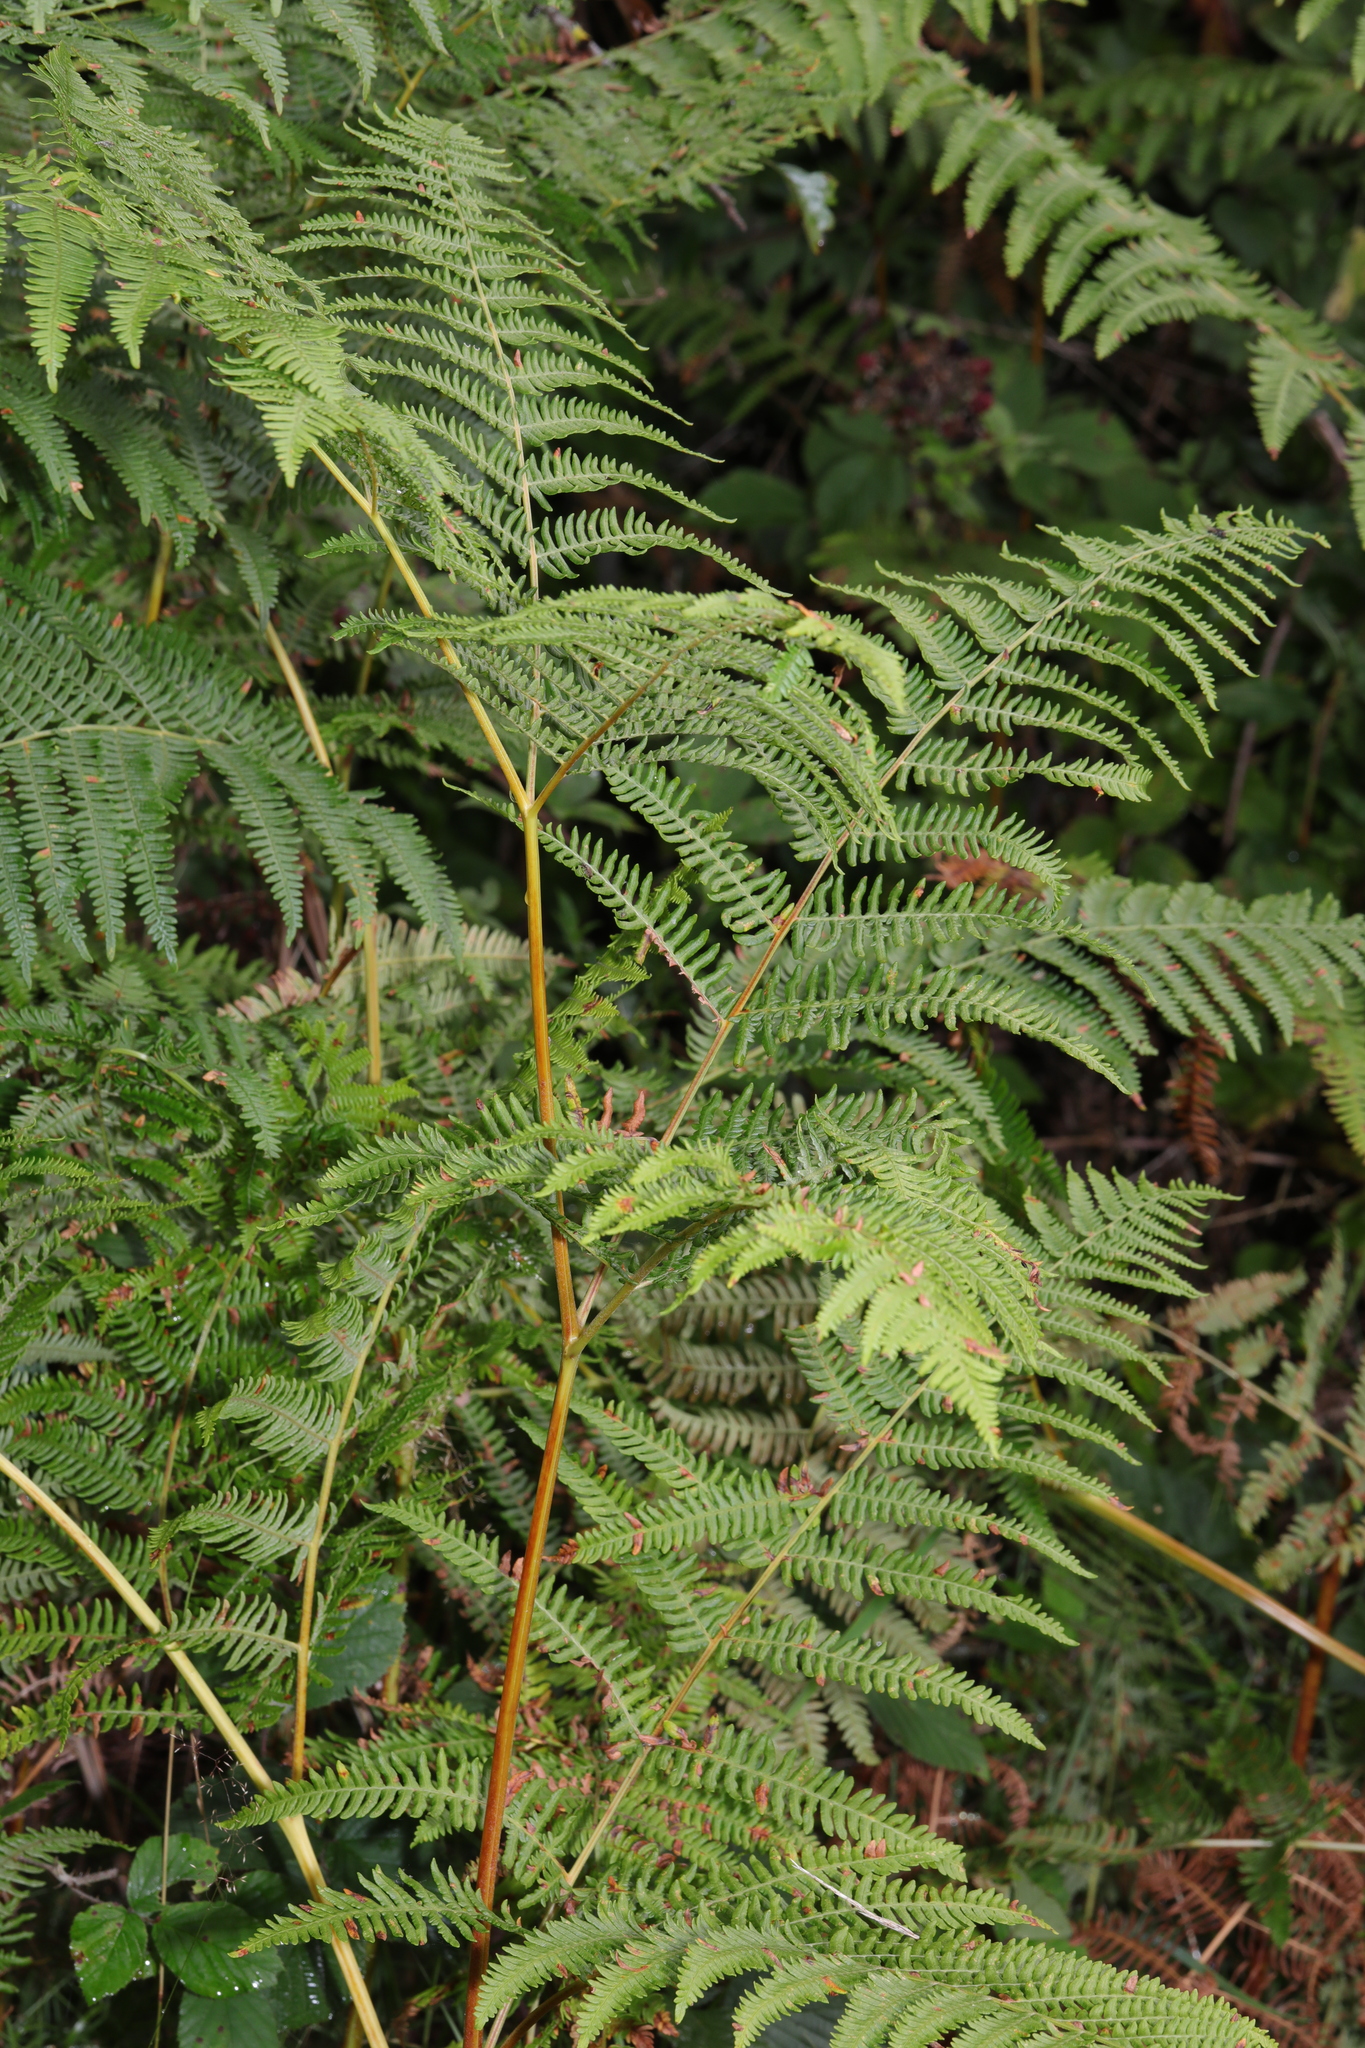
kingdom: Plantae
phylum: Tracheophyta
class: Polypodiopsida
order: Polypodiales
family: Dennstaedtiaceae
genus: Pteridium
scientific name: Pteridium aquilinum
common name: Bracken
